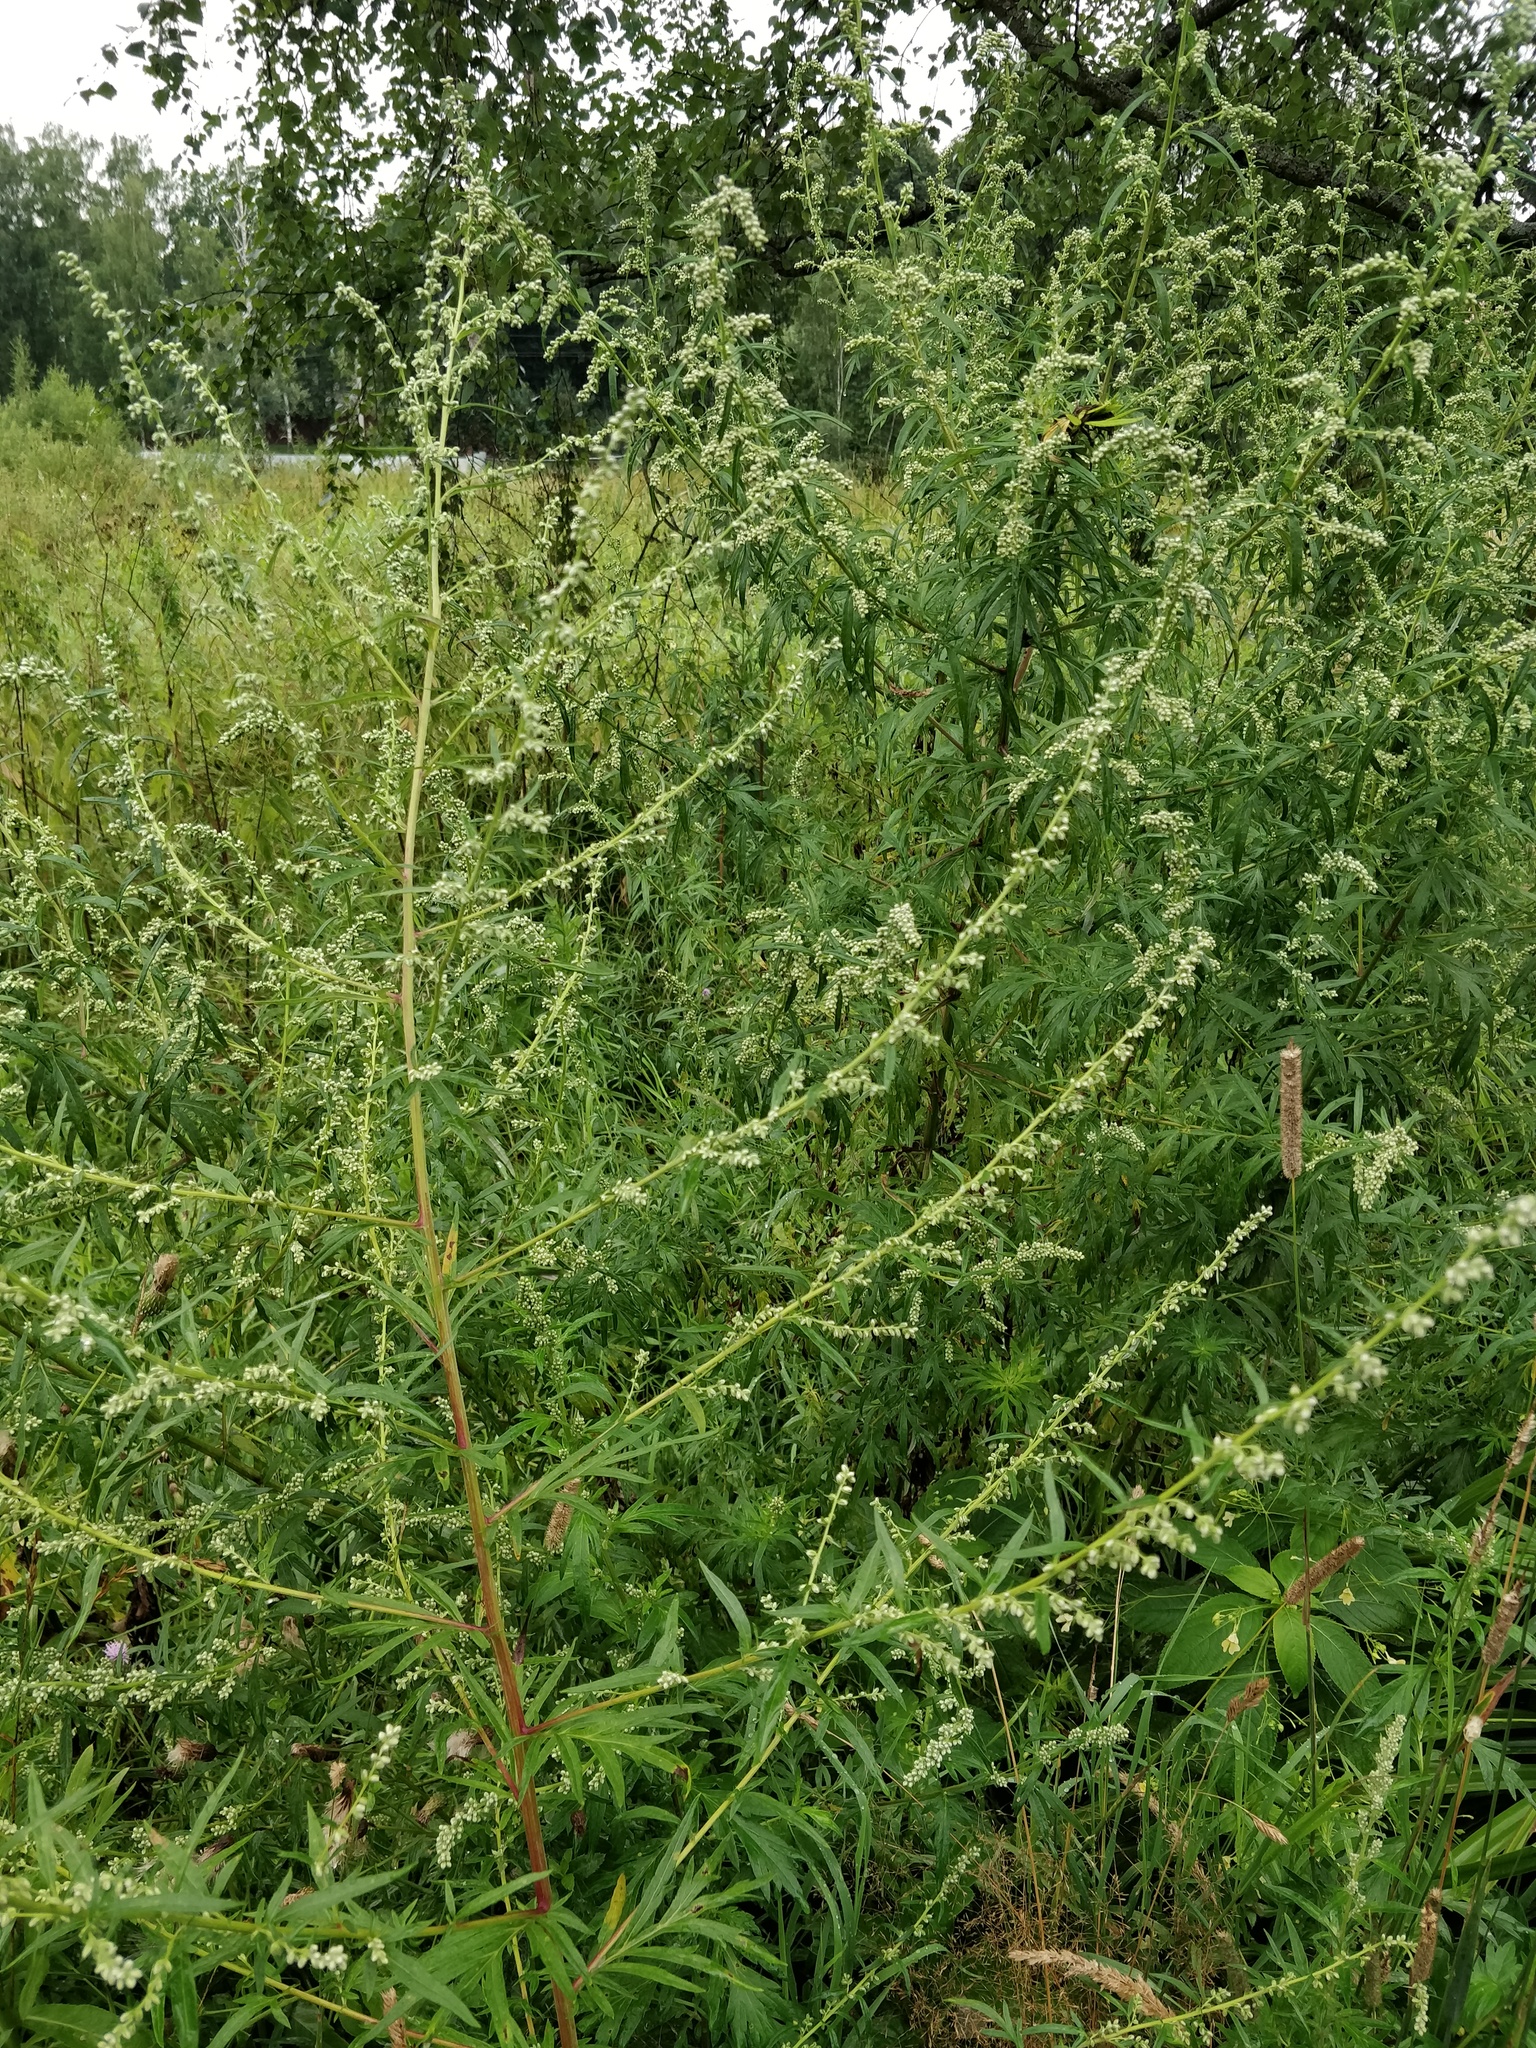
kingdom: Plantae
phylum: Tracheophyta
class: Magnoliopsida
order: Asterales
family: Asteraceae
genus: Artemisia
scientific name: Artemisia vulgaris
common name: Mugwort
